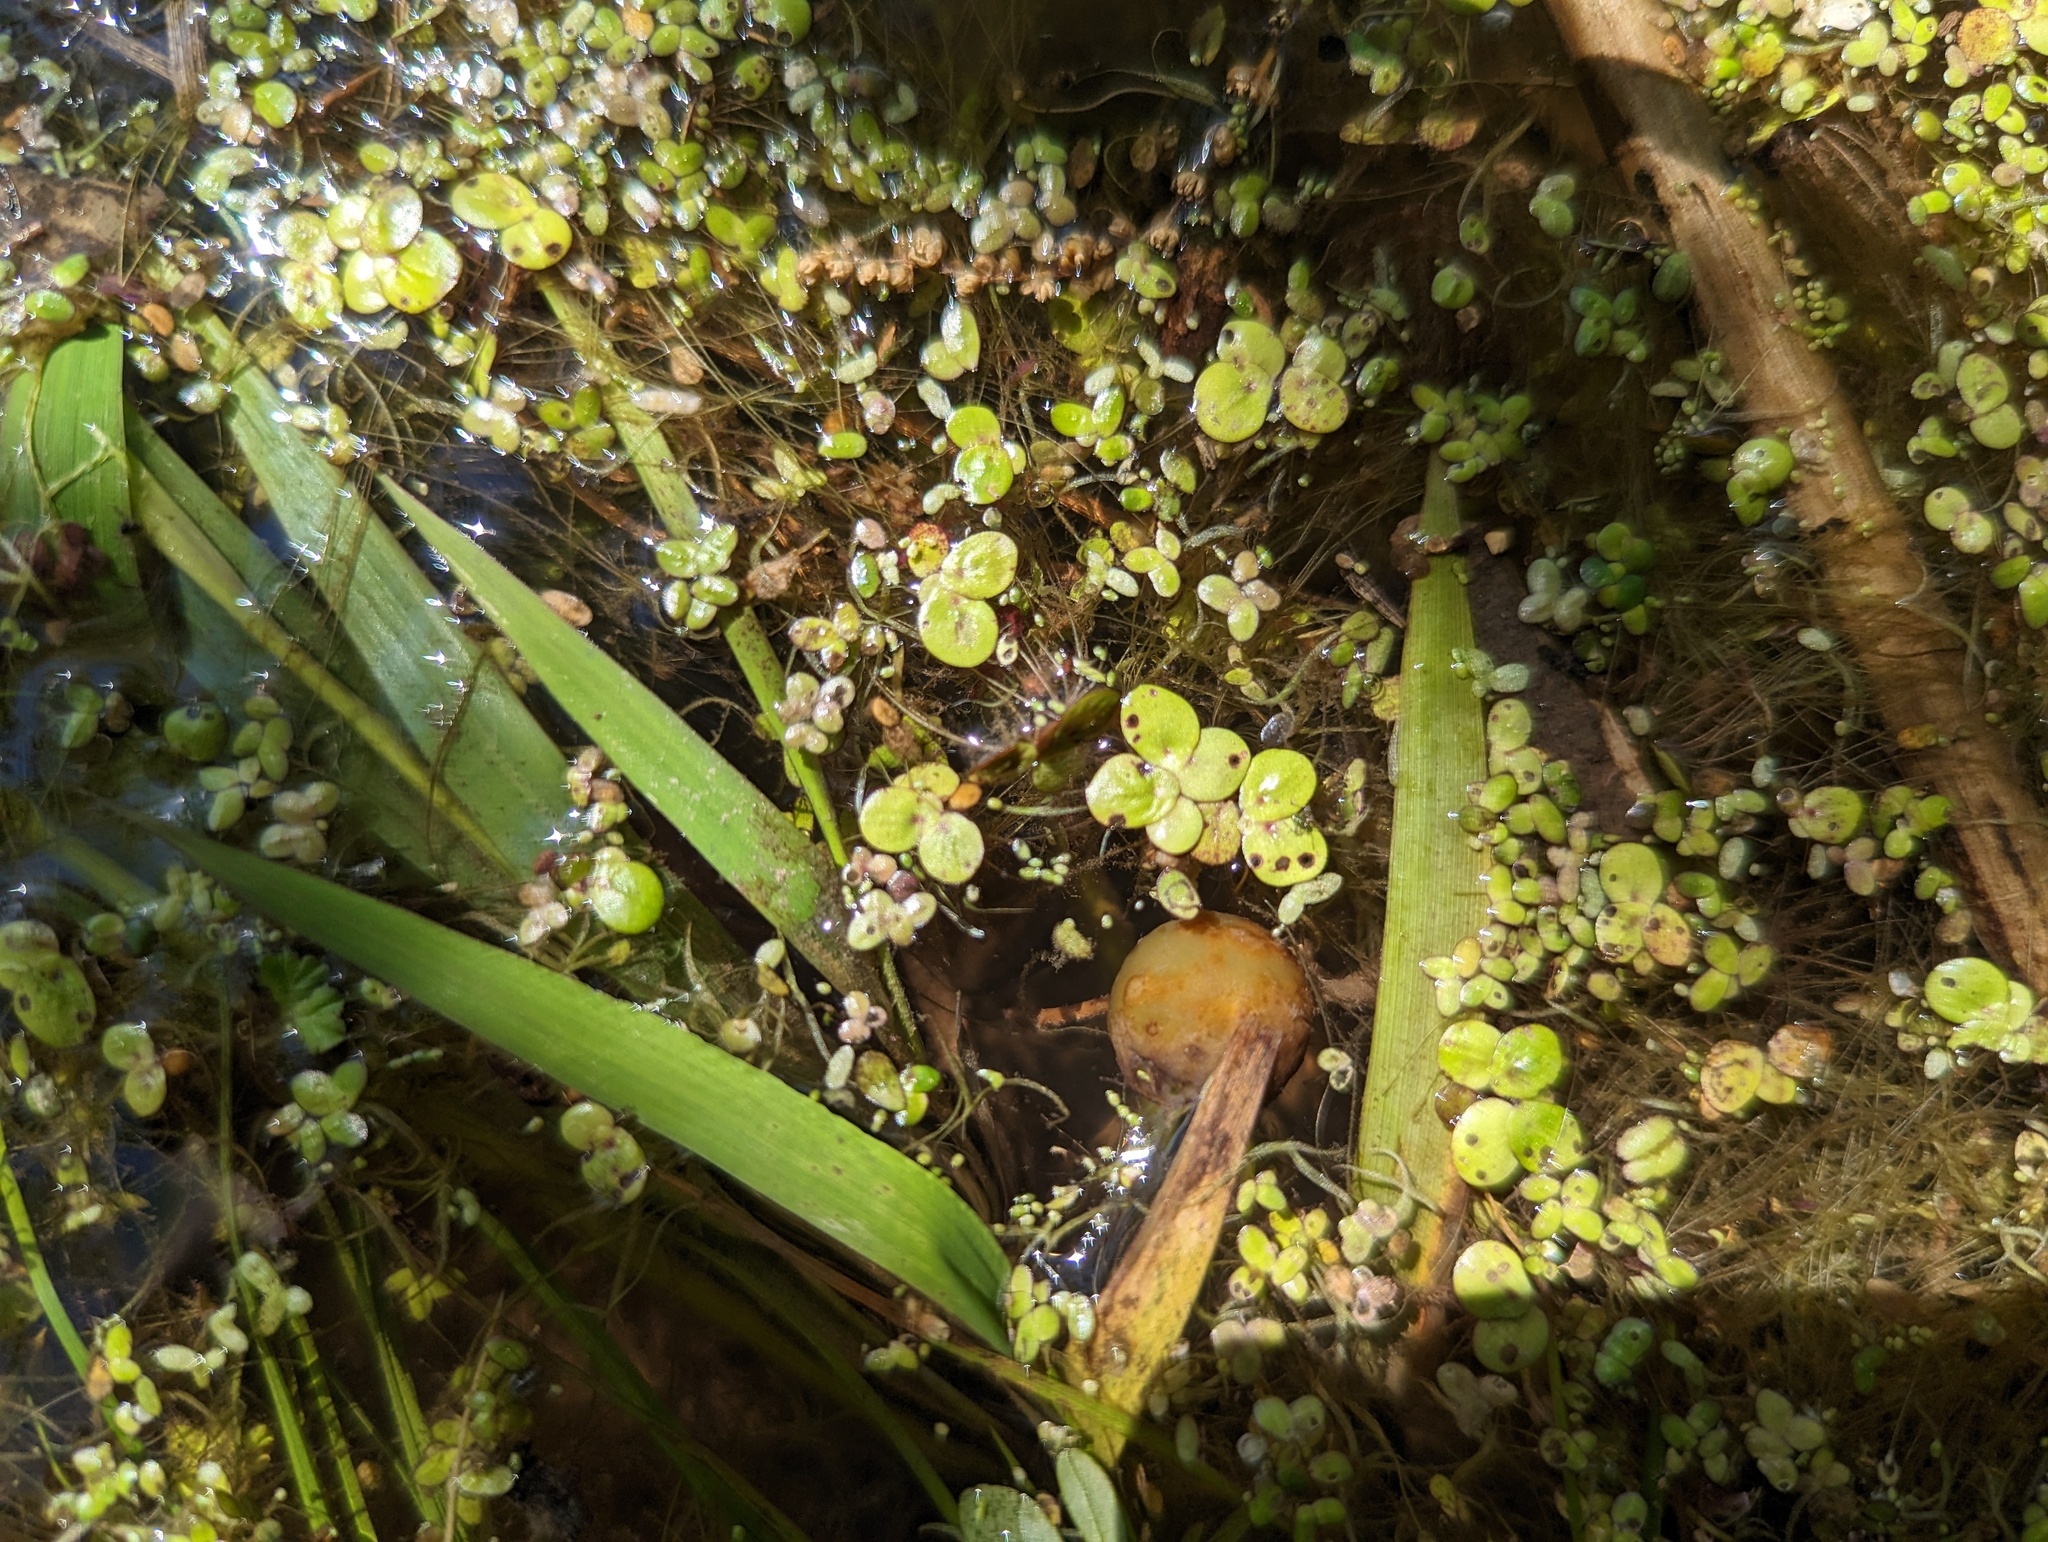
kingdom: Plantae
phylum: Tracheophyta
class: Liliopsida
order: Alismatales
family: Araceae
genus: Spirodela
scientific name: Spirodela polyrhiza
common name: Great duckweed
